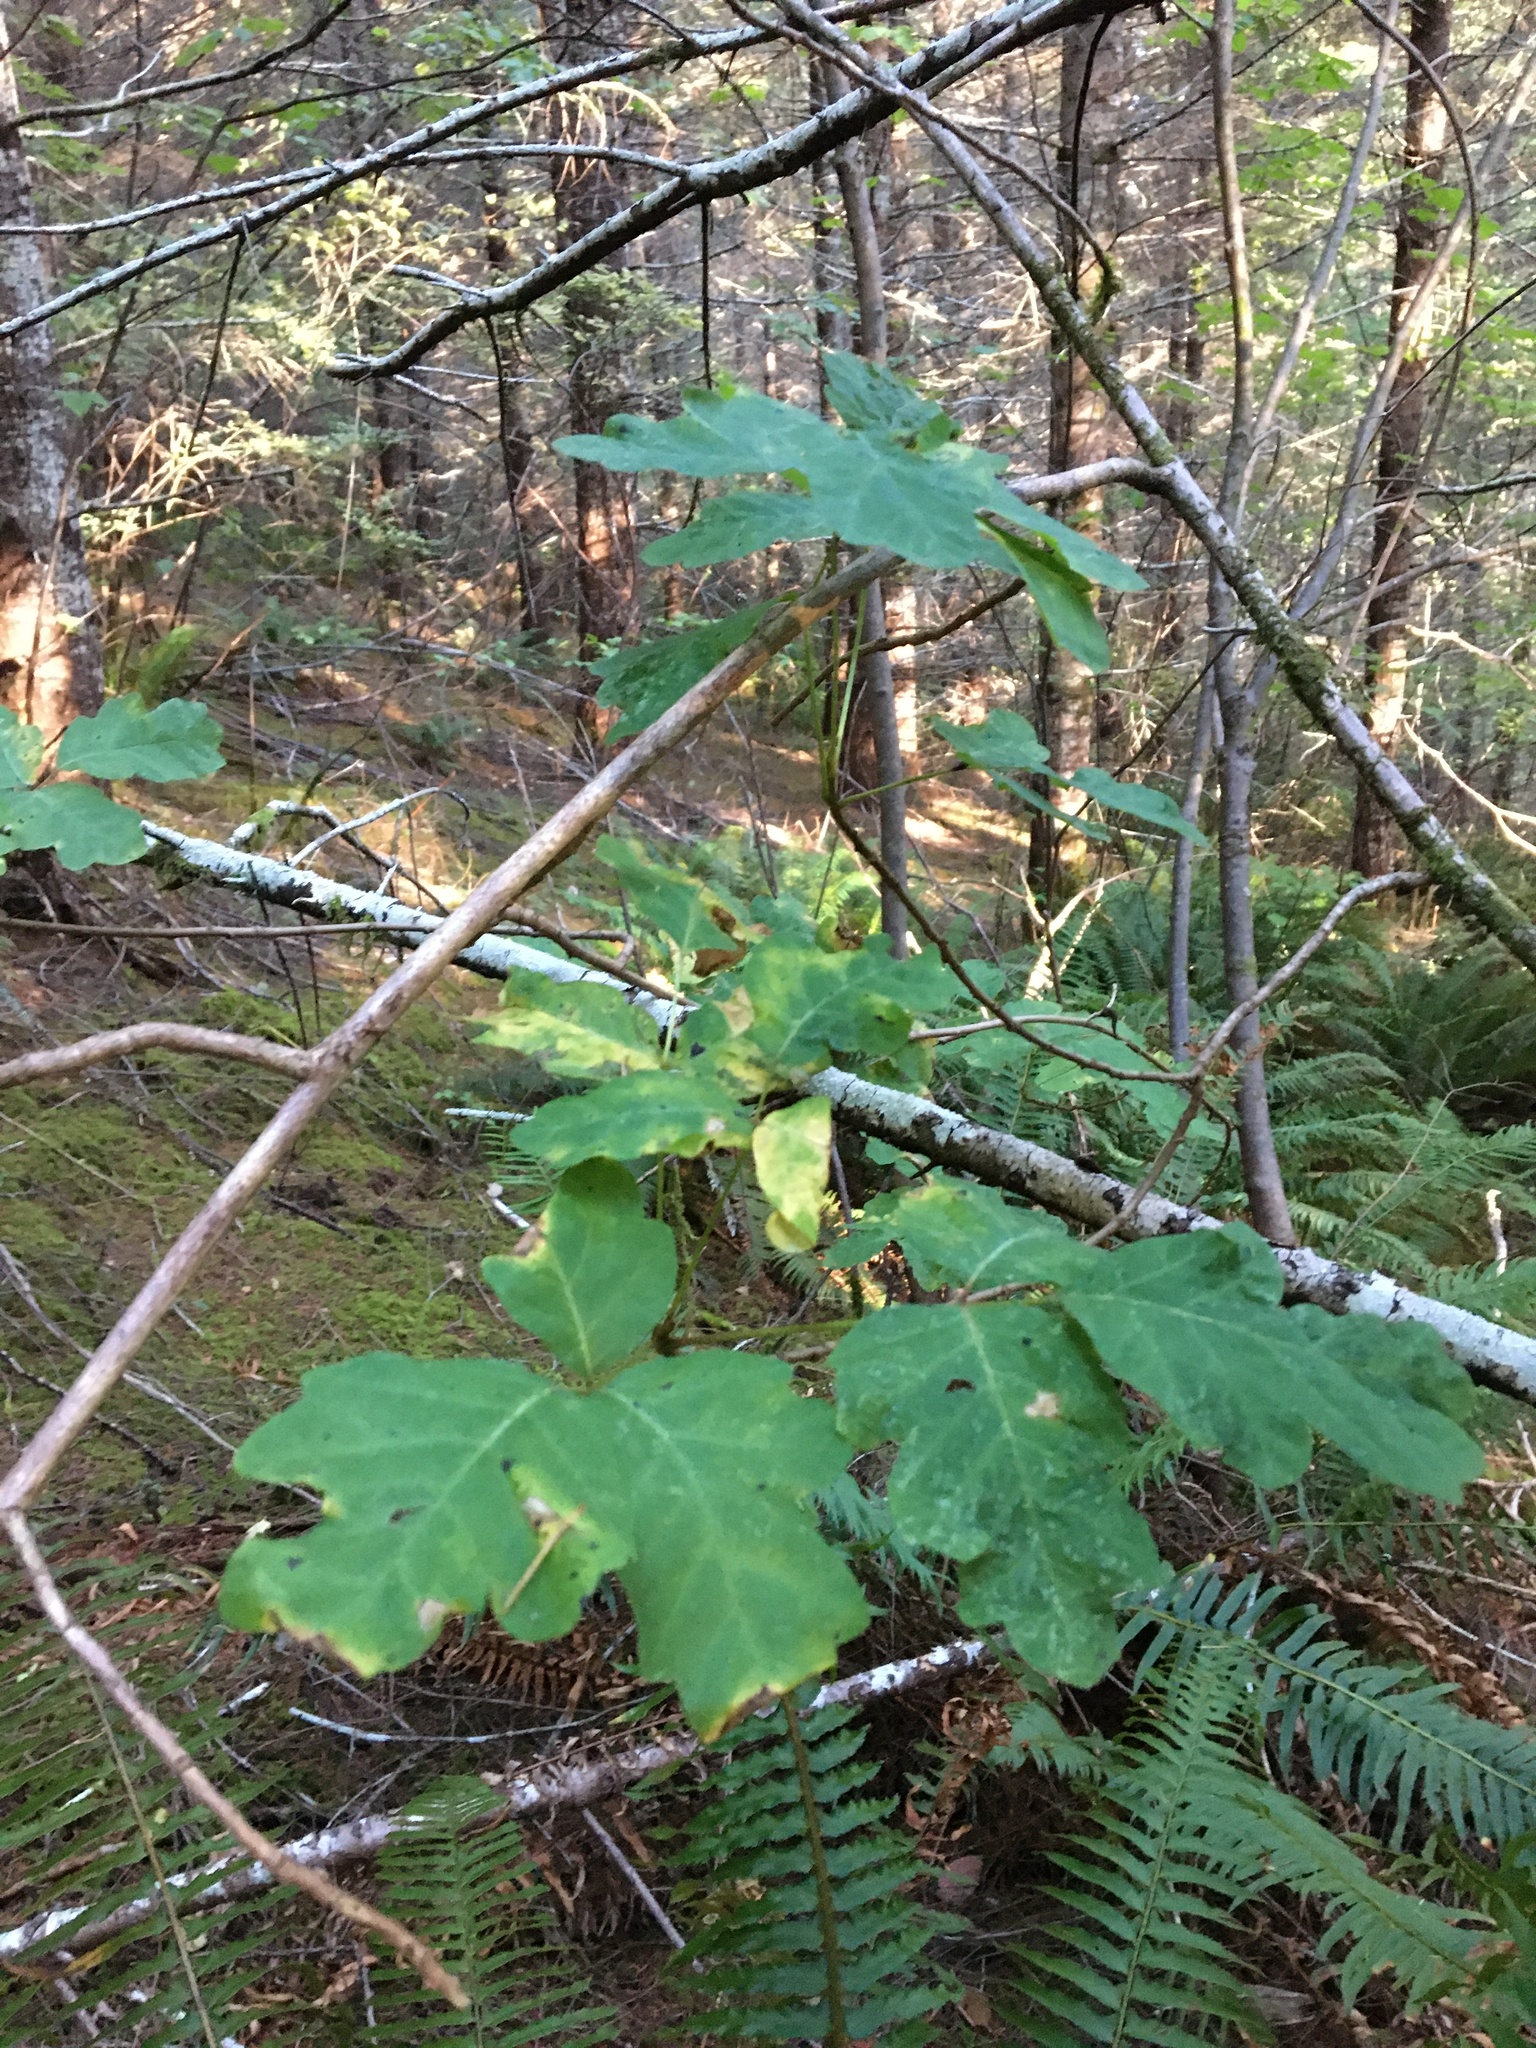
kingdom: Plantae
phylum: Tracheophyta
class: Magnoliopsida
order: Sapindales
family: Anacardiaceae
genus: Toxicodendron
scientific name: Toxicodendron diversilobum
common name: Pacific poison-oak
